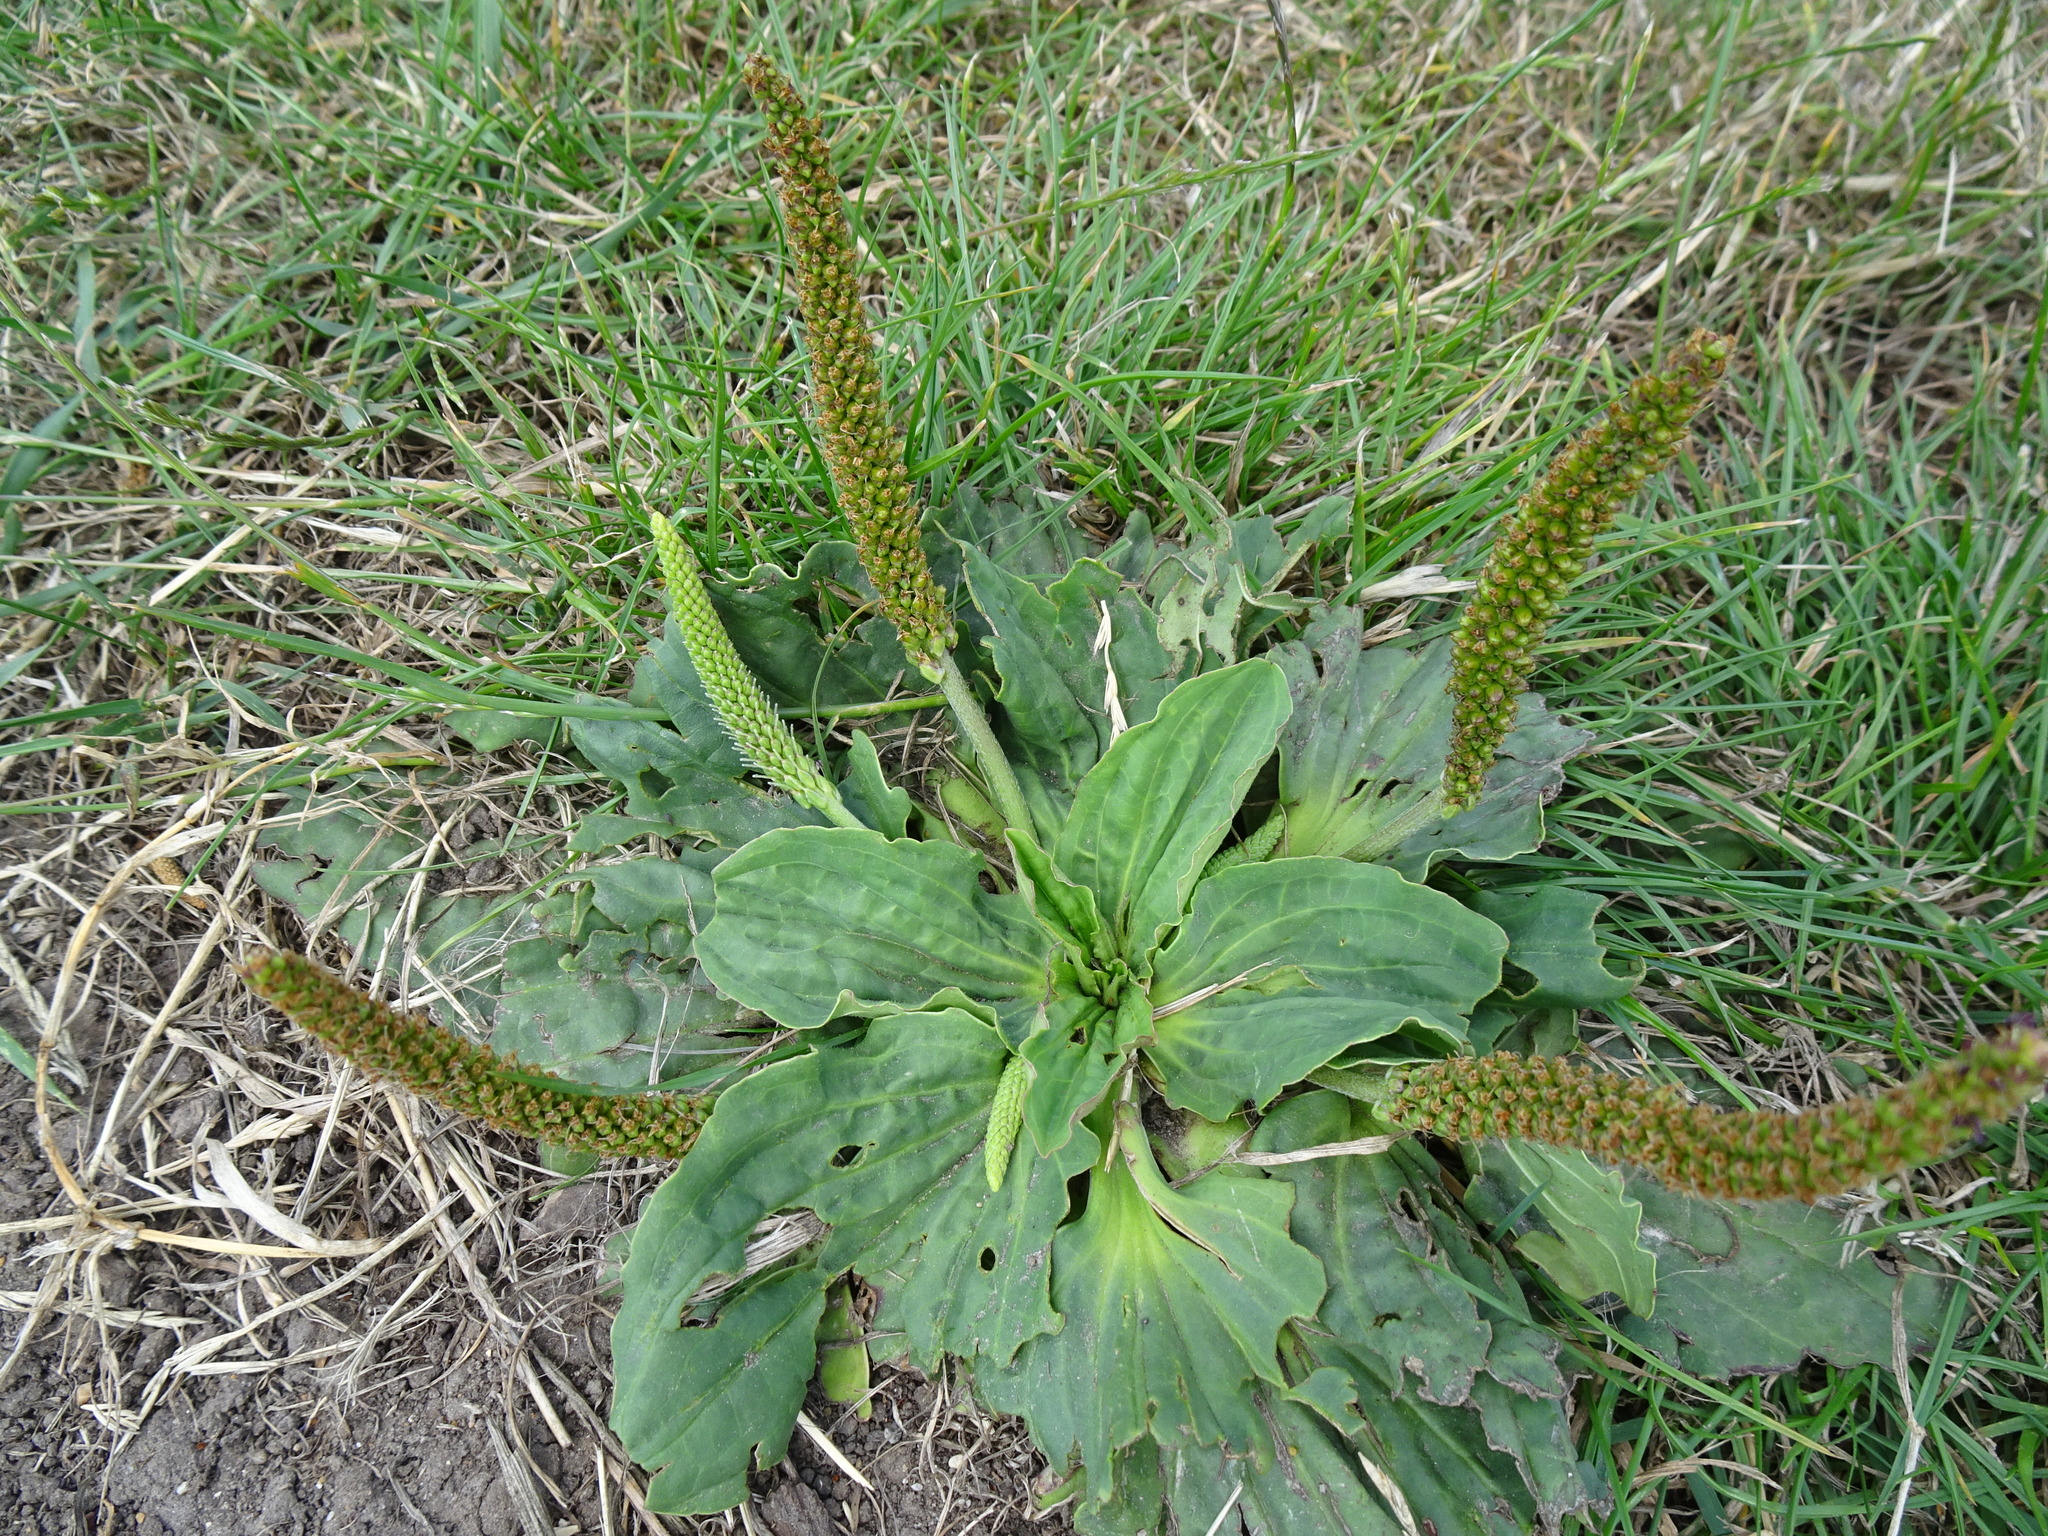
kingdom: Plantae
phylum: Tracheophyta
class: Magnoliopsida
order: Lamiales
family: Plantaginaceae
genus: Plantago
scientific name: Plantago major
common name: Common plantain
